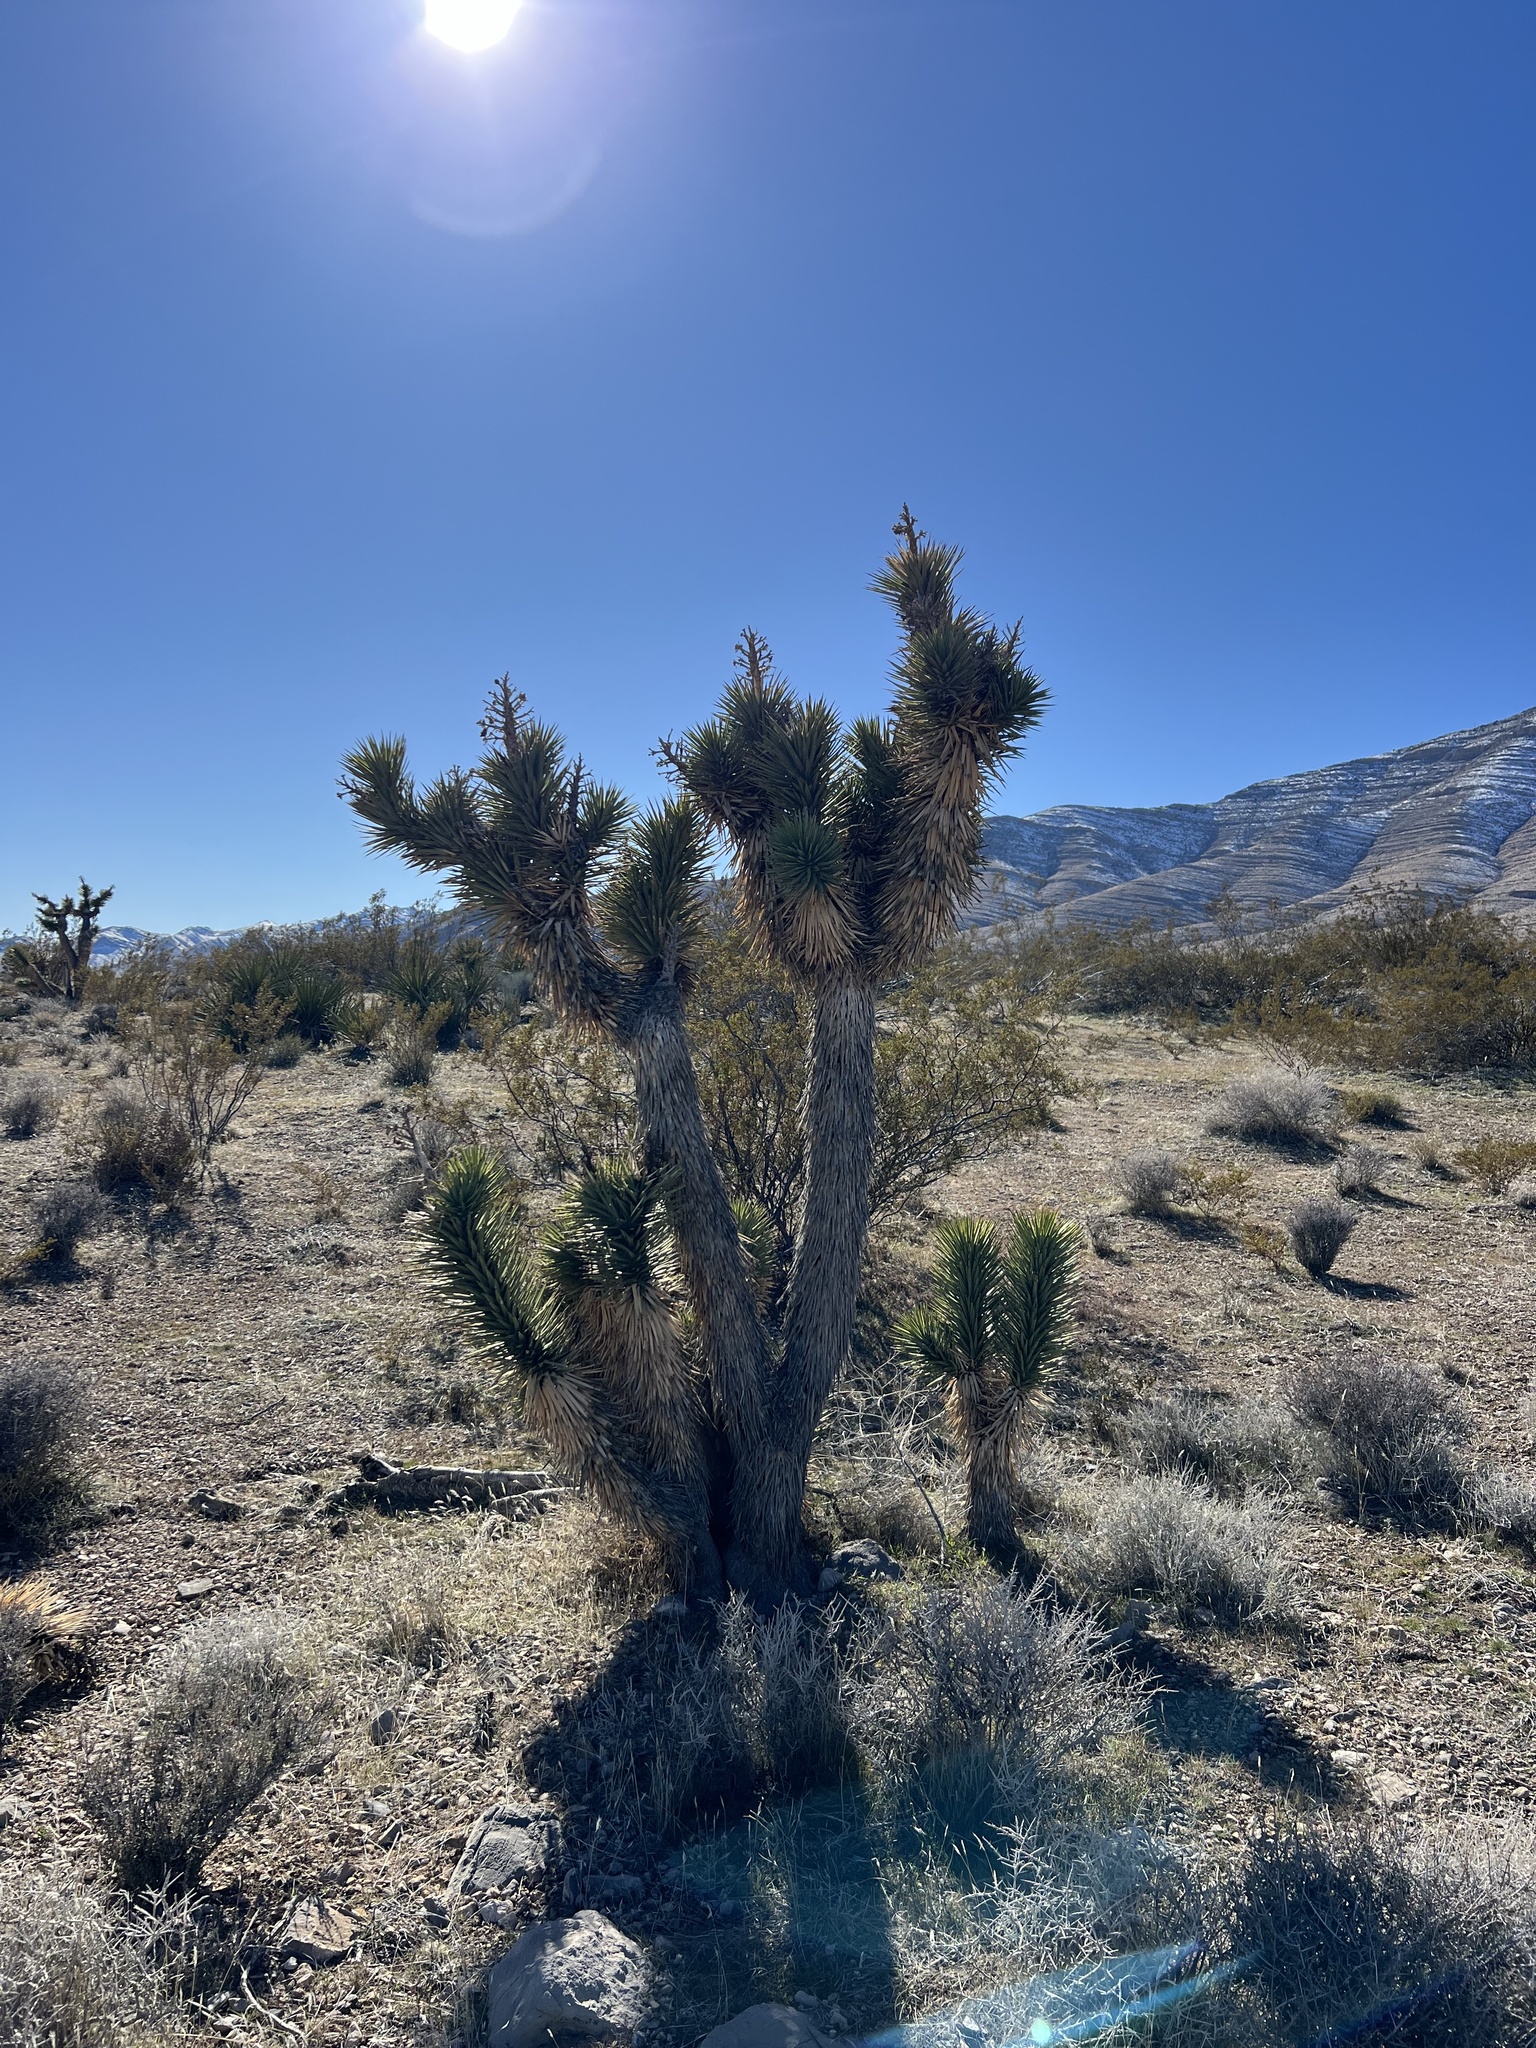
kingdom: Plantae
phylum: Tracheophyta
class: Liliopsida
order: Asparagales
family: Asparagaceae
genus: Yucca
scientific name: Yucca brevifolia
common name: Joshua tree
